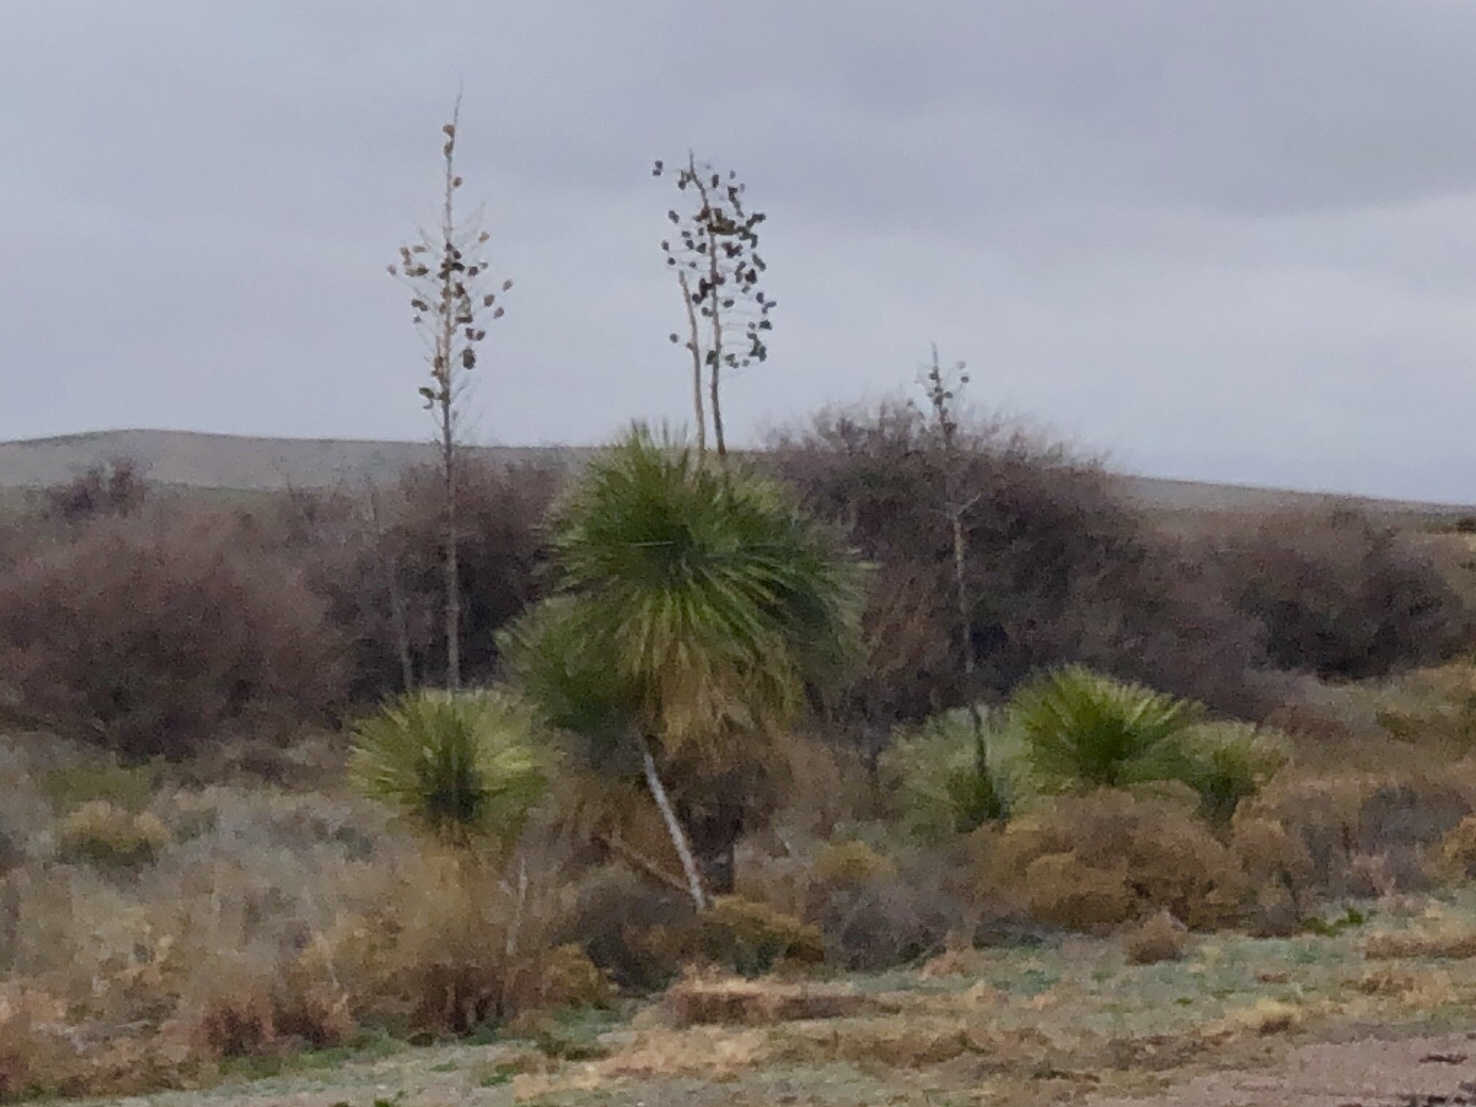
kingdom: Plantae
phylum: Tracheophyta
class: Liliopsida
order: Asparagales
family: Asparagaceae
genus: Yucca
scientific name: Yucca elata
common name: Palmella
